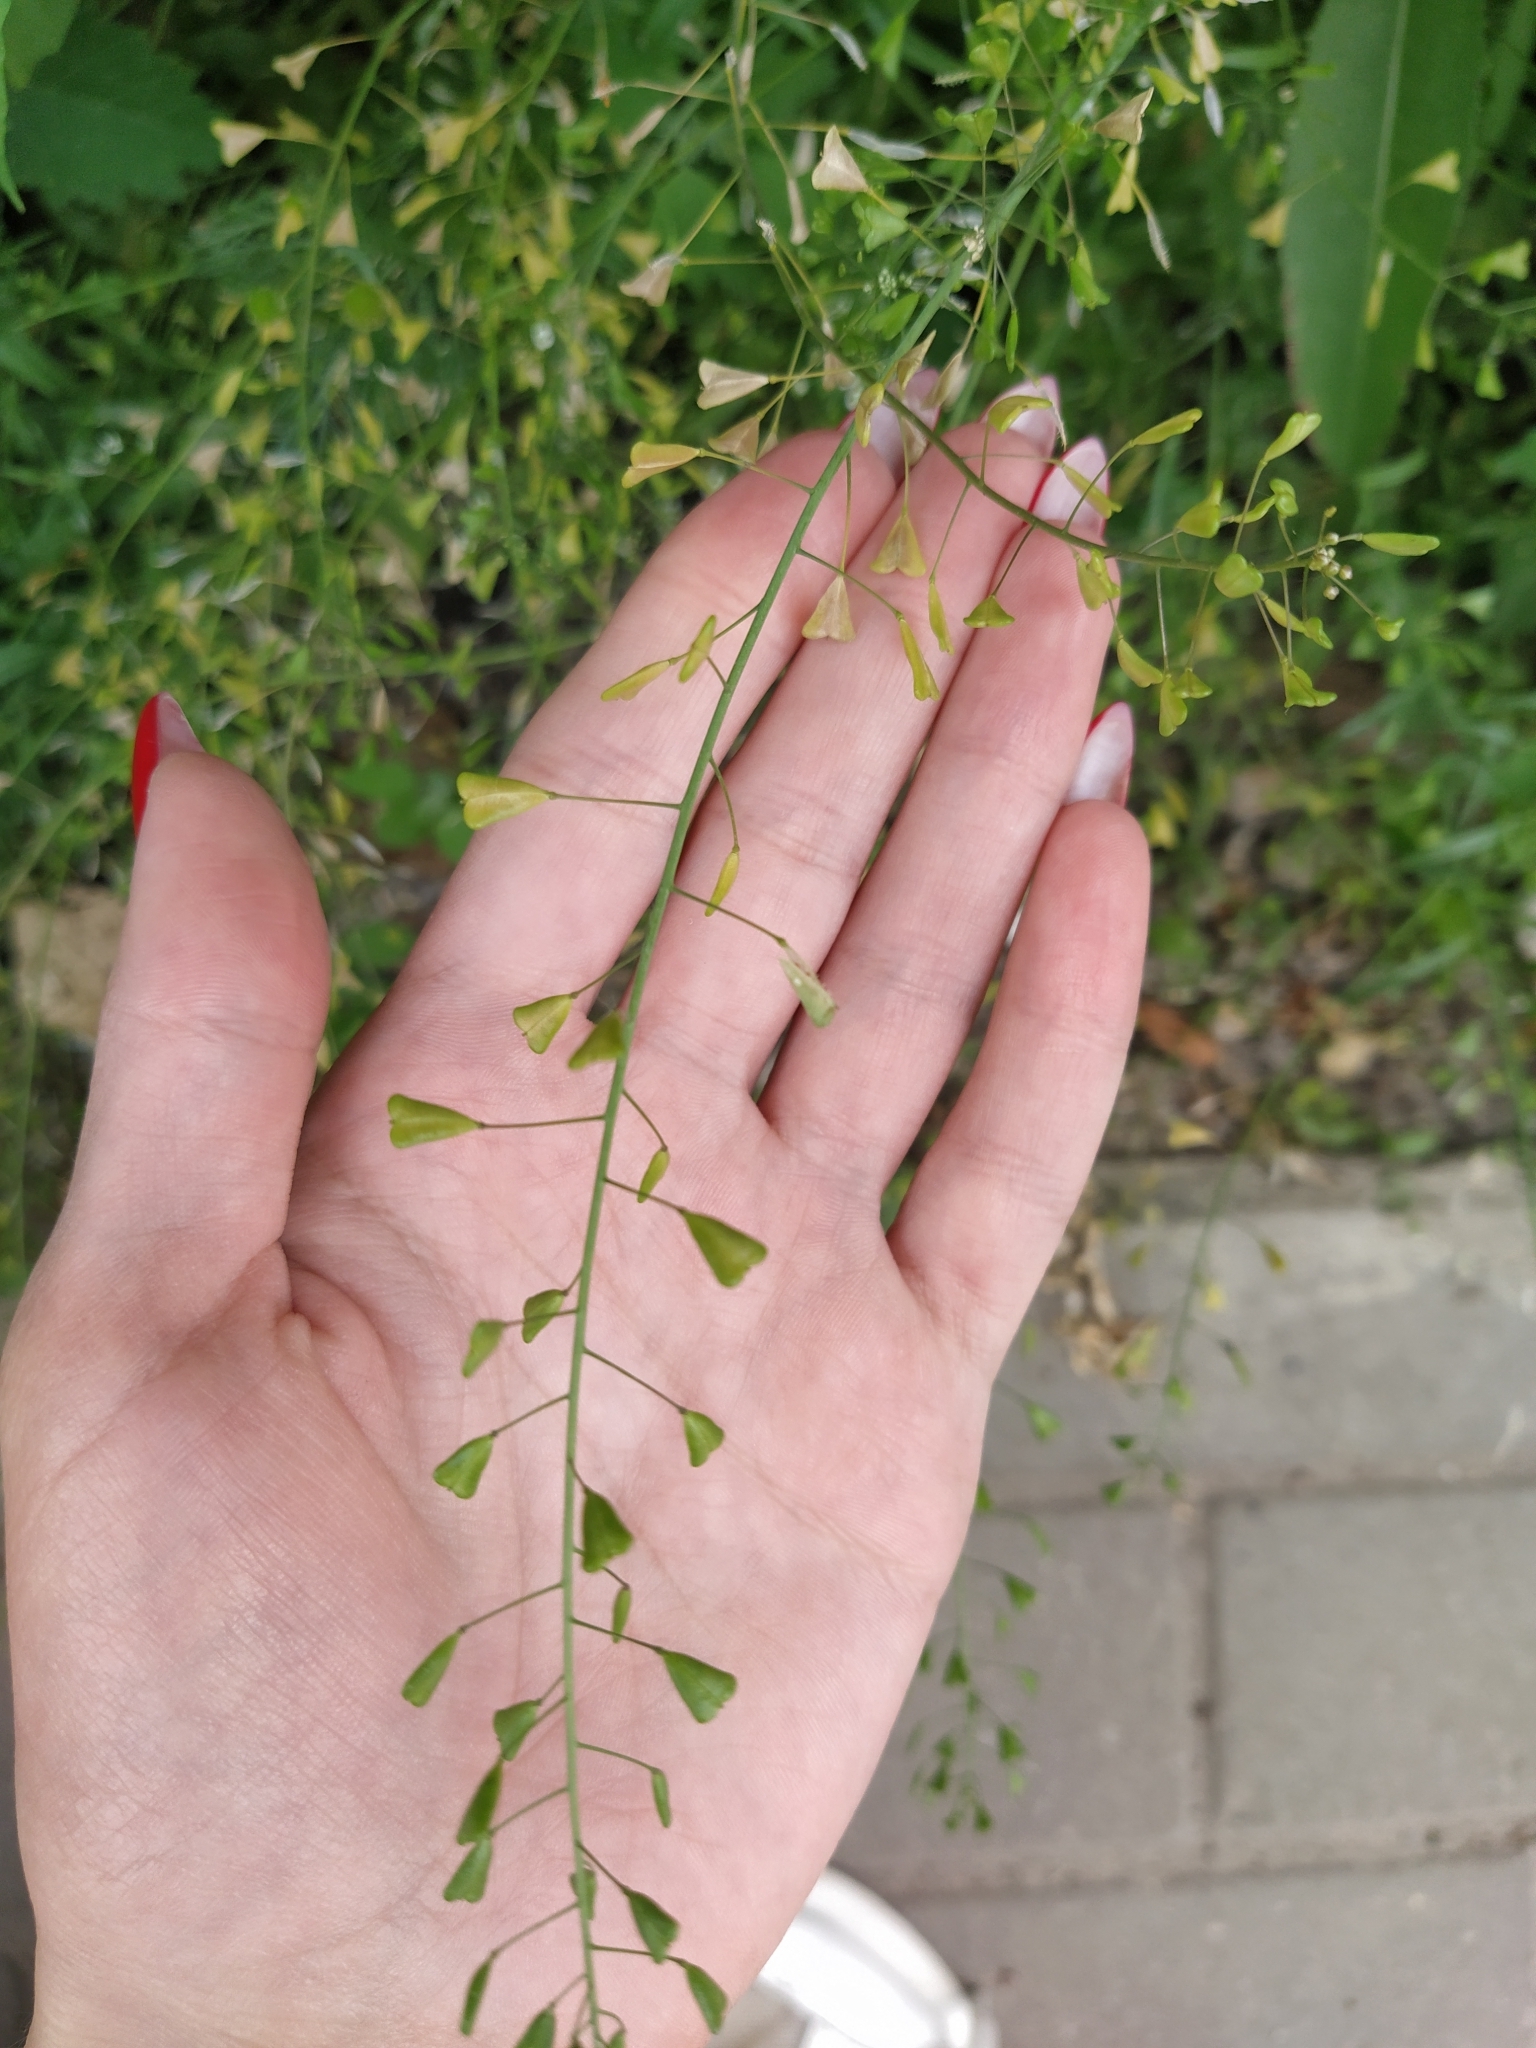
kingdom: Plantae
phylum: Tracheophyta
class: Magnoliopsida
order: Brassicales
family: Brassicaceae
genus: Capsella
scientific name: Capsella bursa-pastoris
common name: Shepherd's purse
